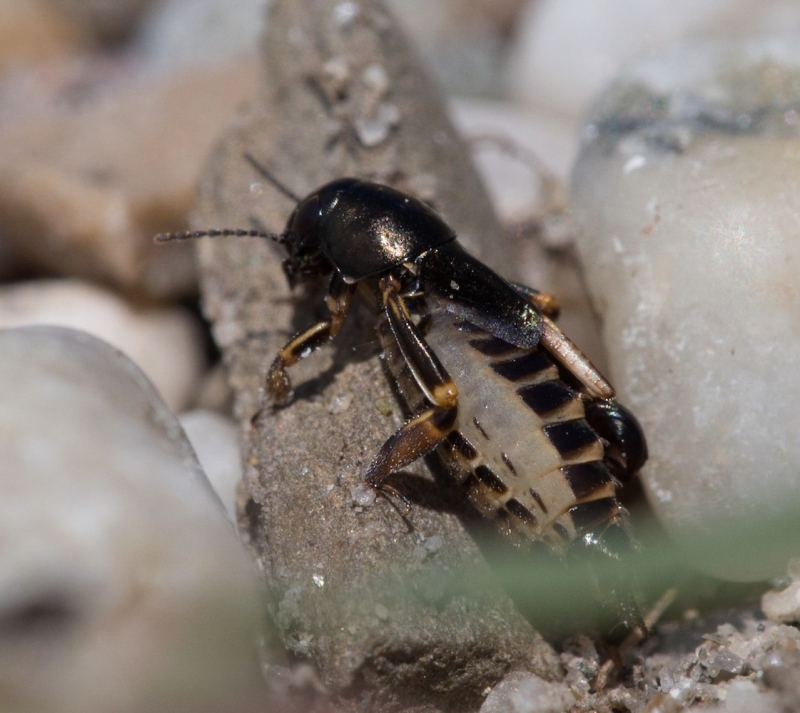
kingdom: Animalia
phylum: Arthropoda
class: Insecta
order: Orthoptera
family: Tridactylidae
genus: Xya
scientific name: Xya pfaendleri
